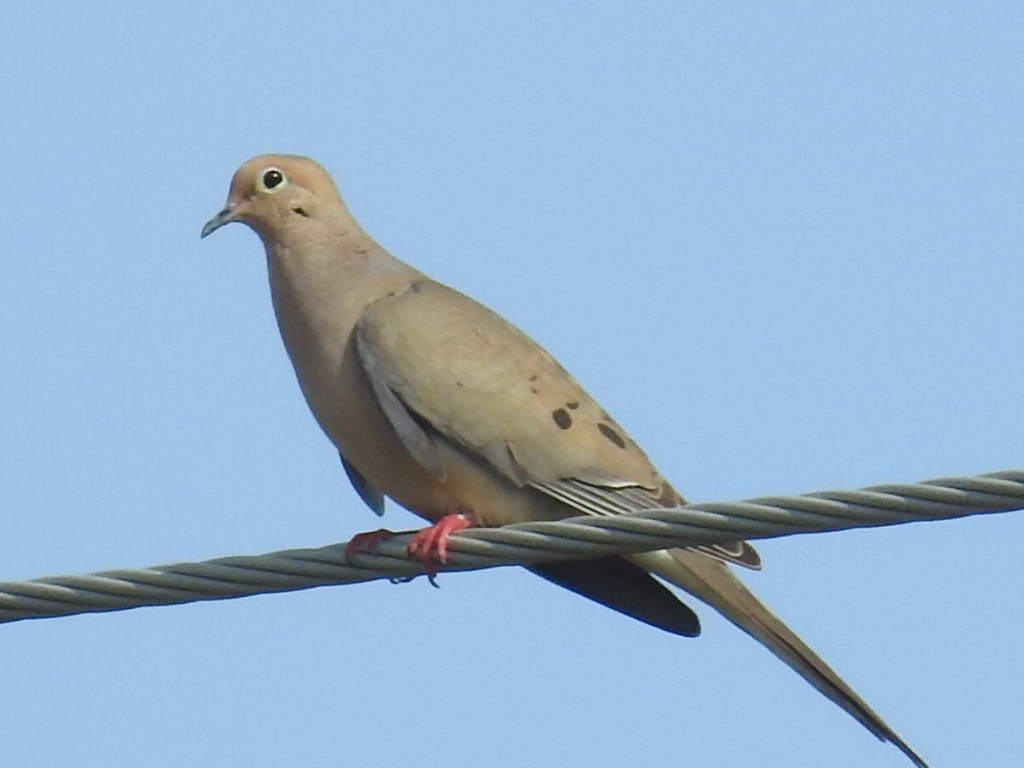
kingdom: Animalia
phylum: Chordata
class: Aves
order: Columbiformes
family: Columbidae
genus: Zenaida
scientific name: Zenaida macroura
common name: Mourning dove
